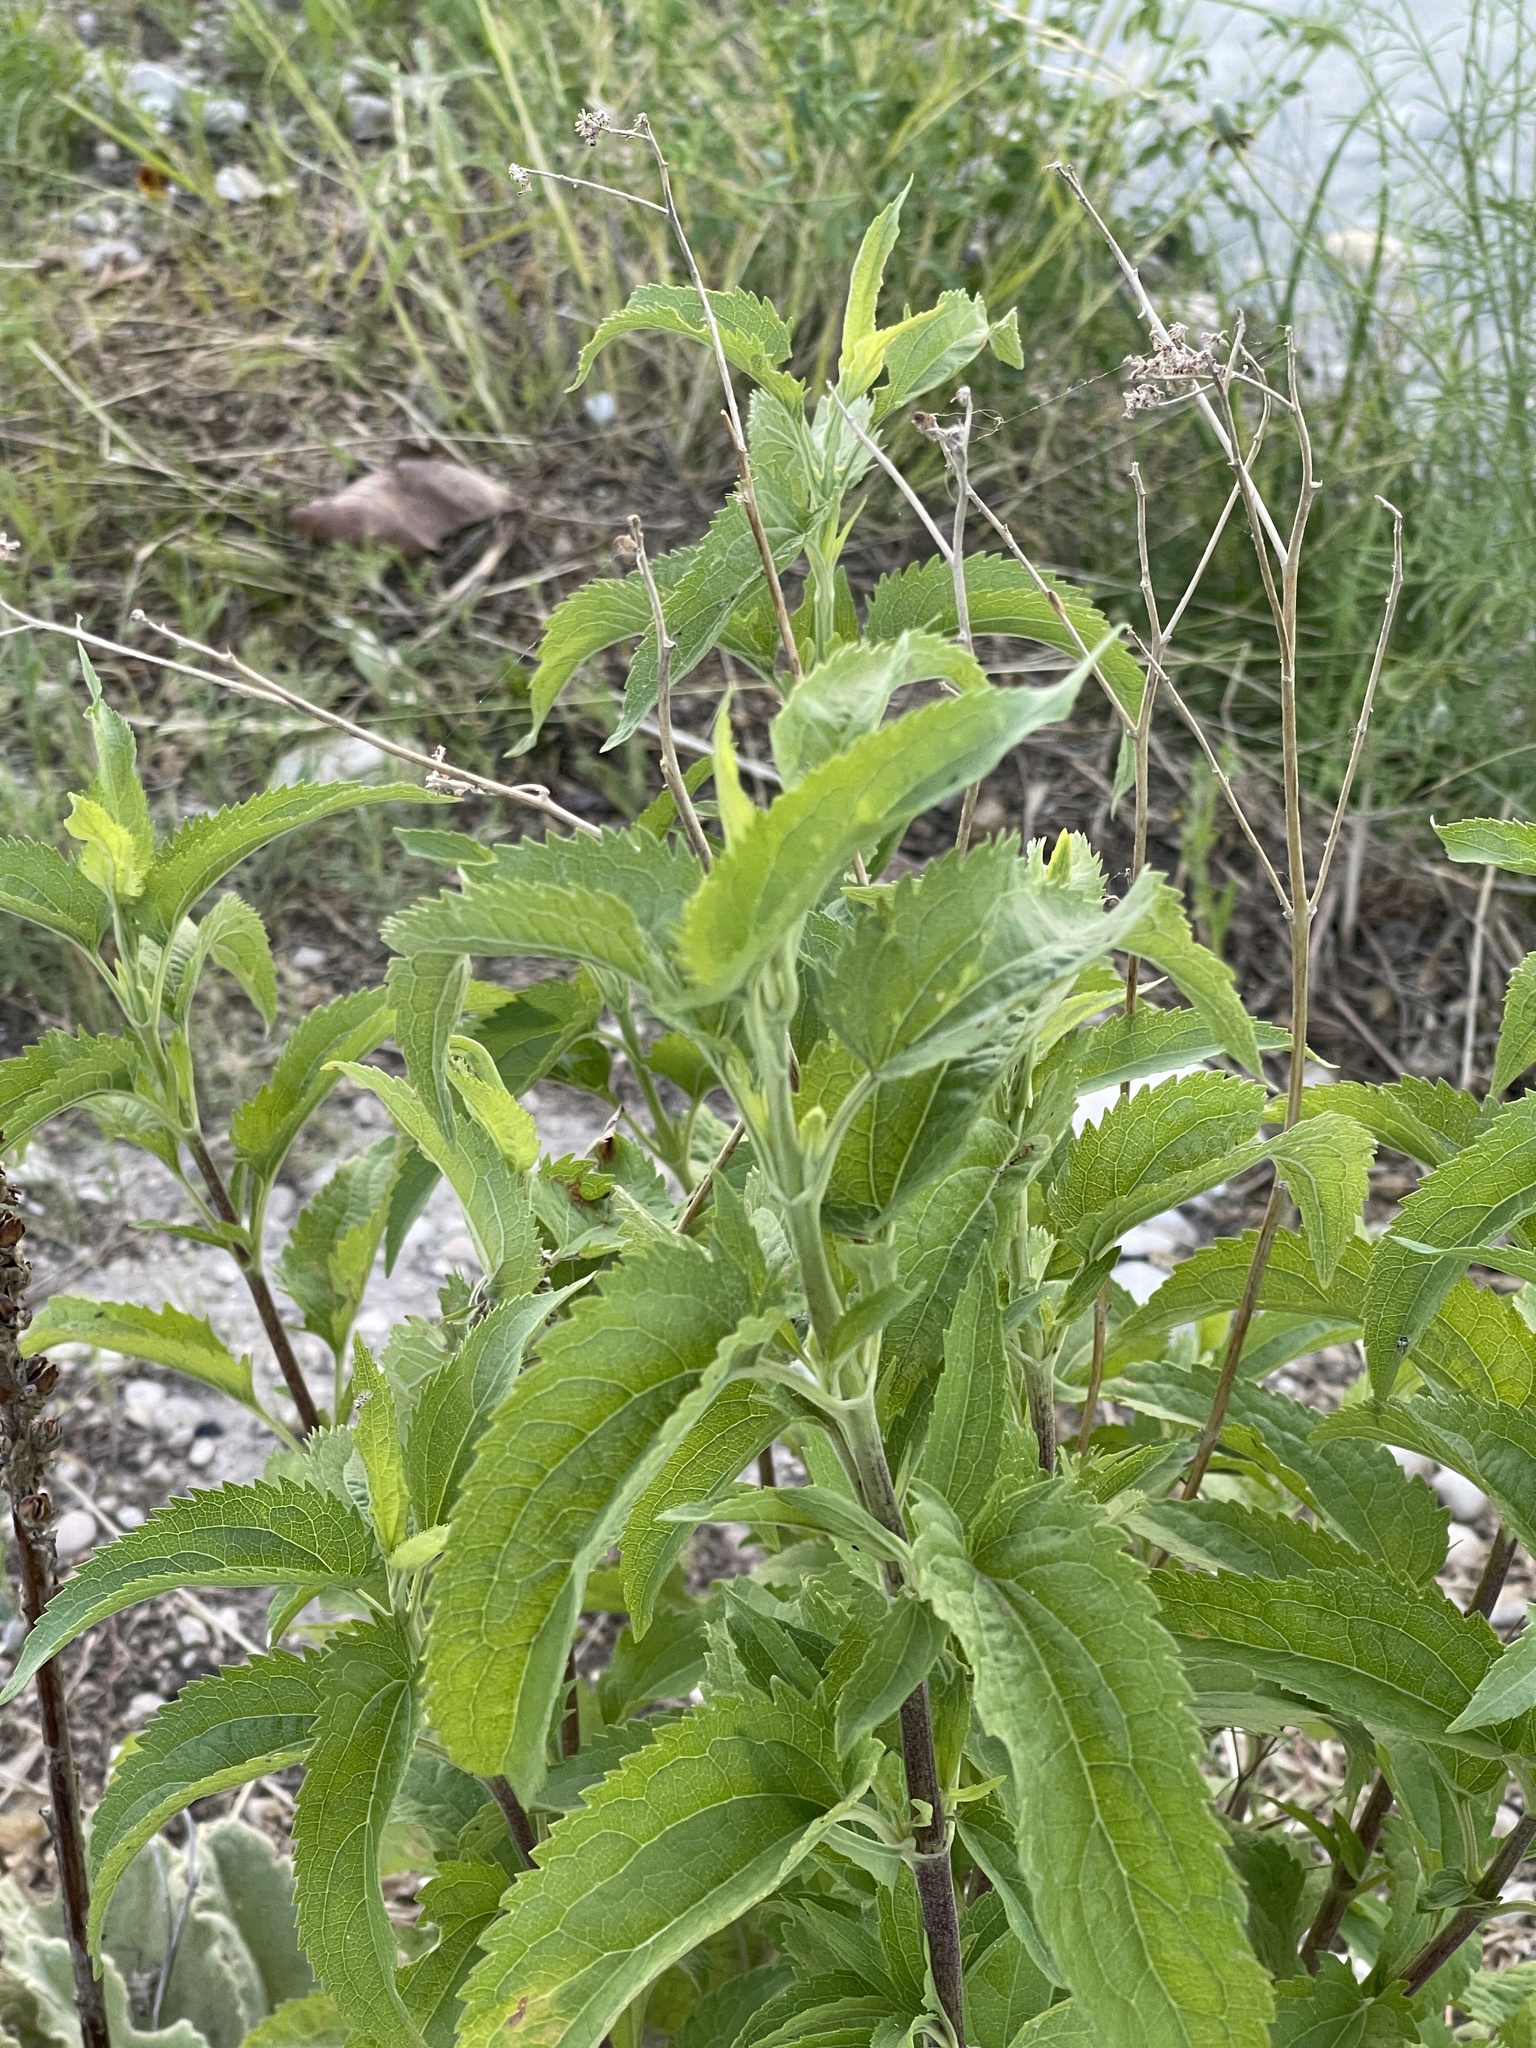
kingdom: Plantae
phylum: Tracheophyta
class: Magnoliopsida
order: Asterales
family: Asteraceae
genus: Eupatorium
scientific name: Eupatorium serotinum
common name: Late boneset
